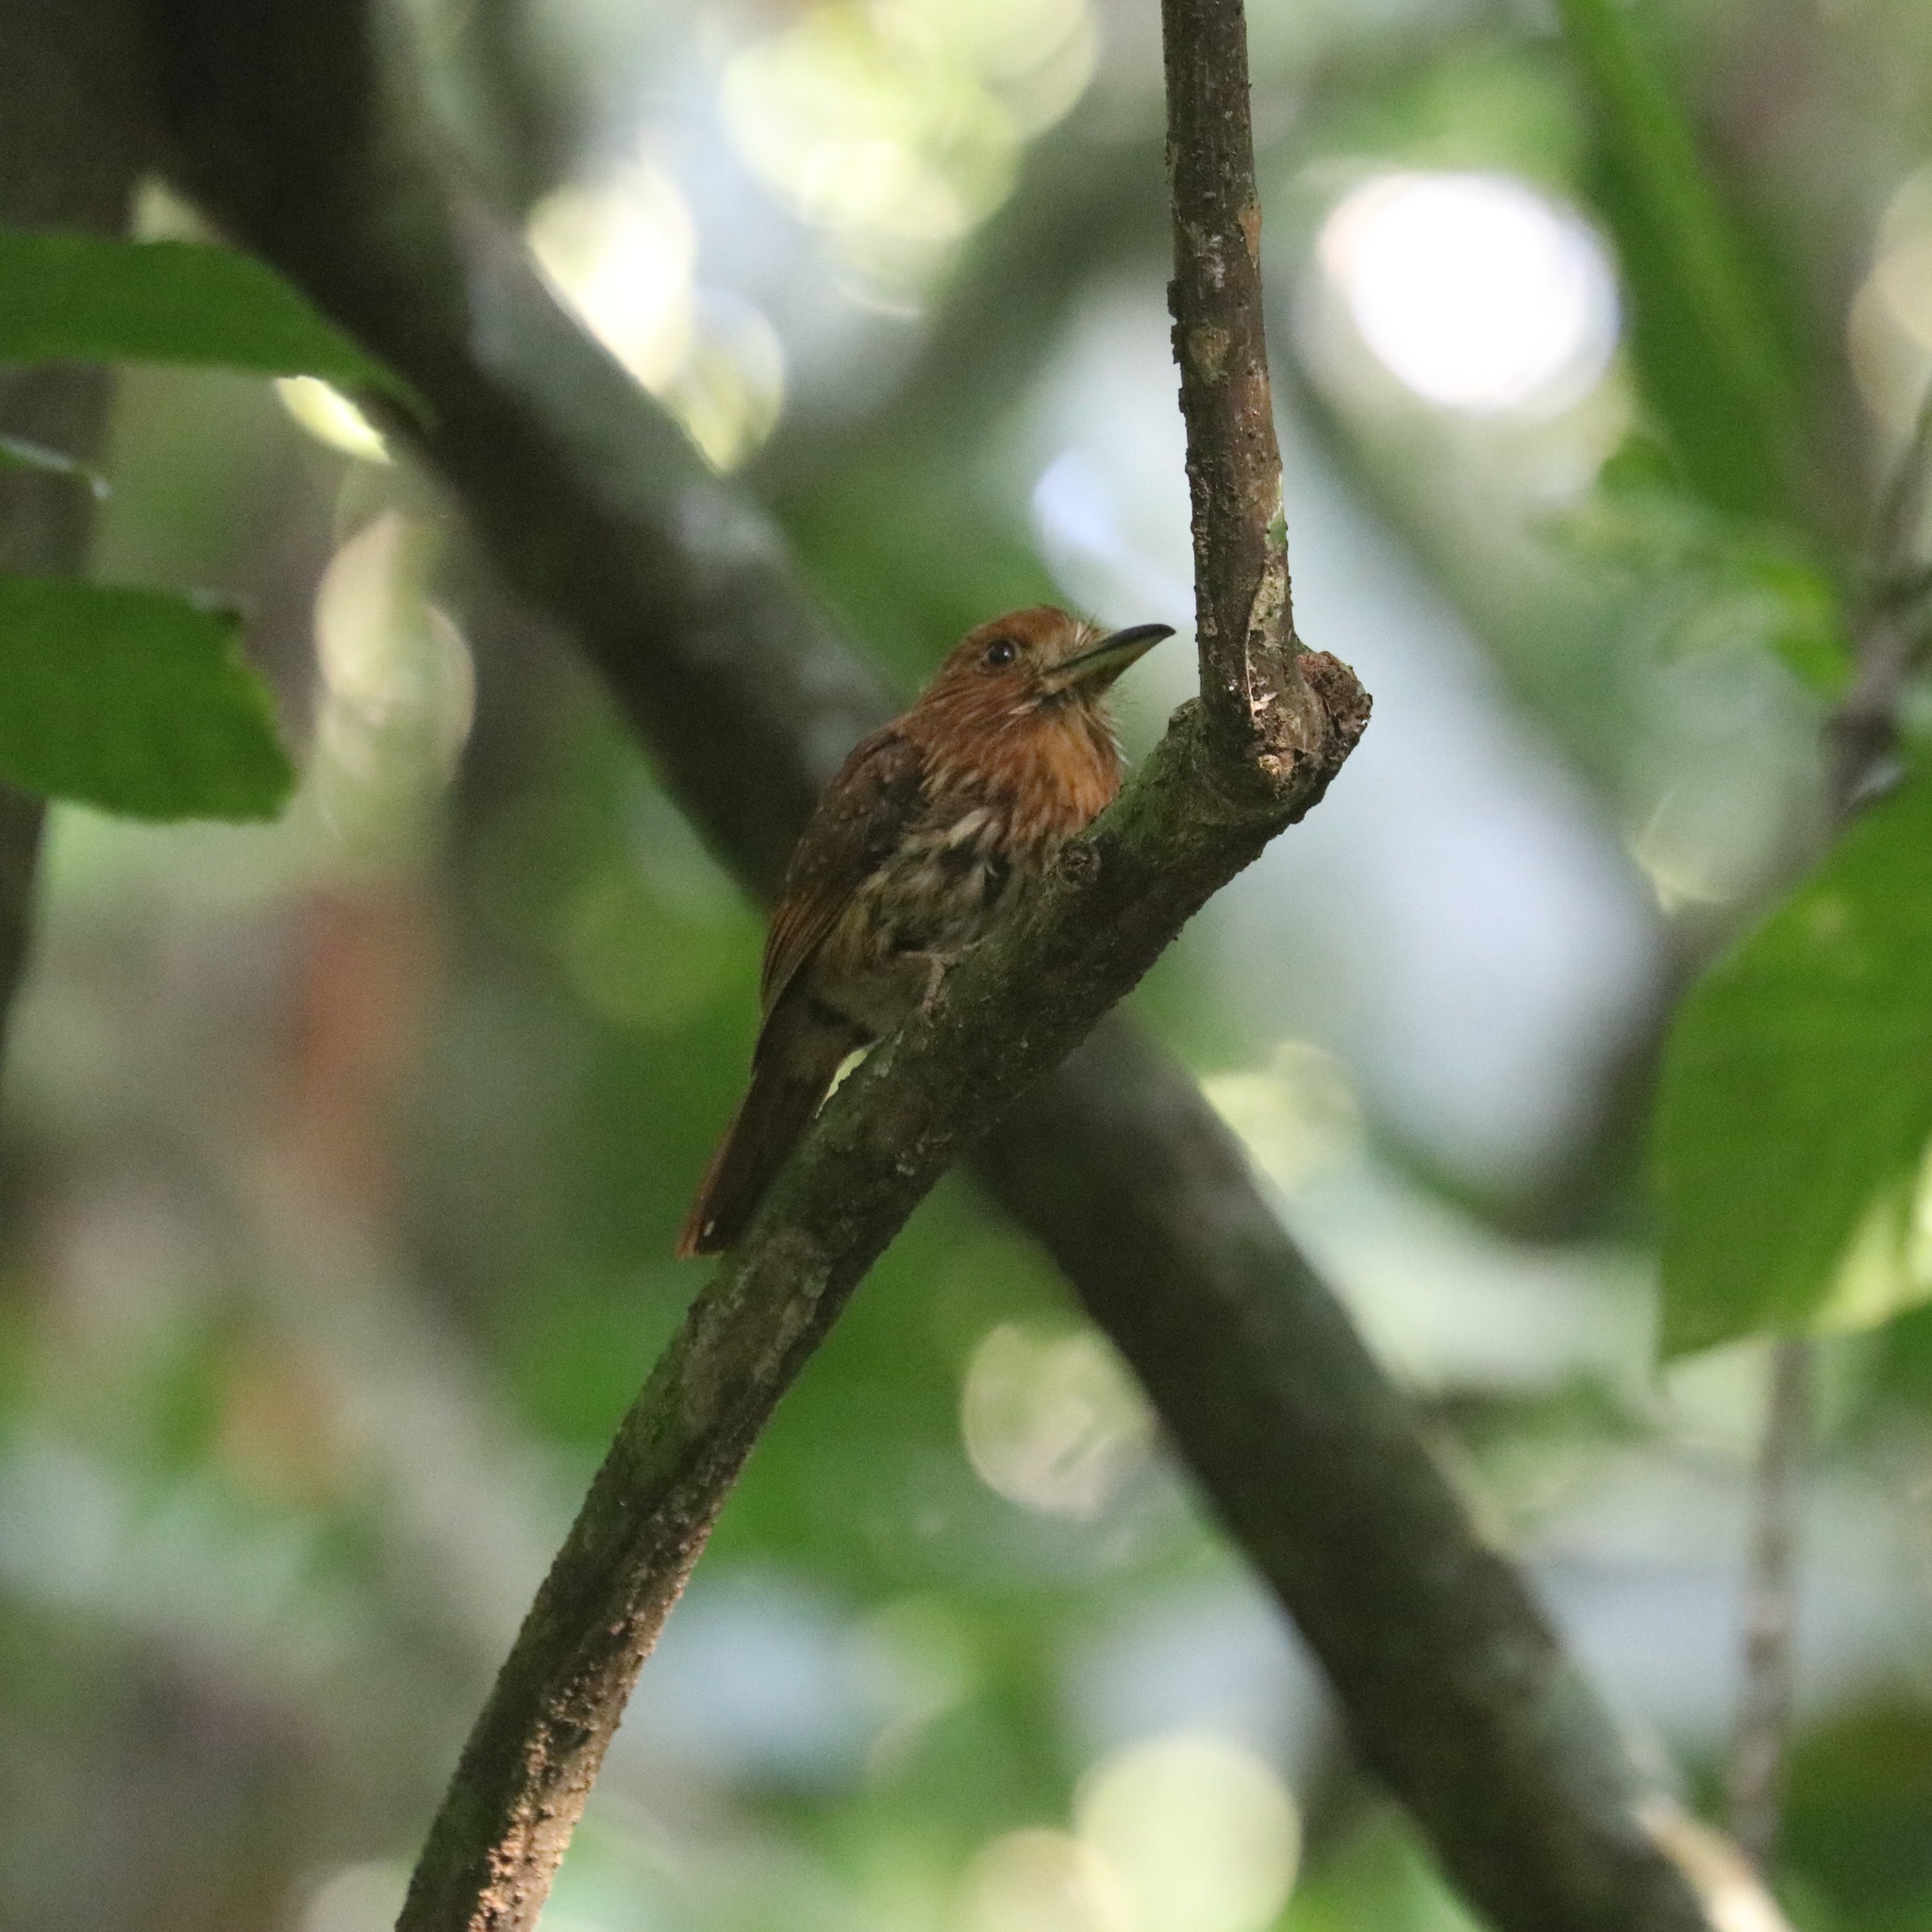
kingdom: Animalia
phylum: Chordata
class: Aves
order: Piciformes
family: Bucconidae
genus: Malacoptila
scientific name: Malacoptila panamensis
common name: White-whiskered puffbird
